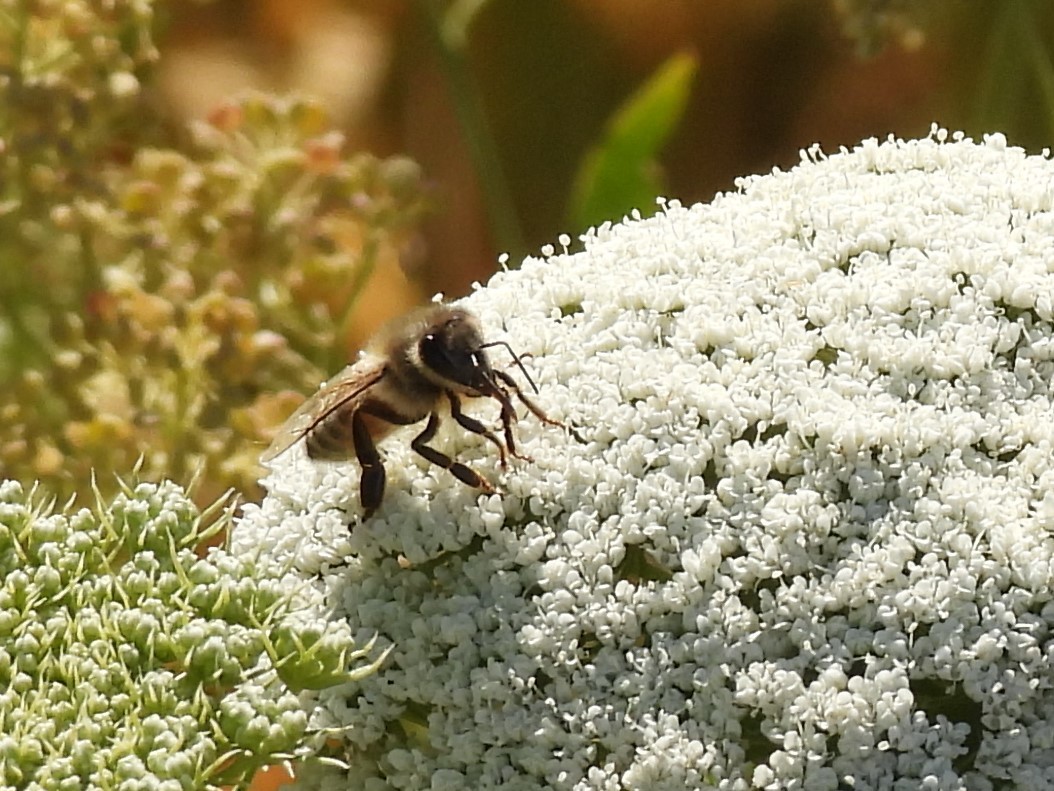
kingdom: Animalia
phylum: Arthropoda
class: Insecta
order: Hymenoptera
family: Apidae
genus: Apis
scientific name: Apis mellifera
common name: Honey bee
